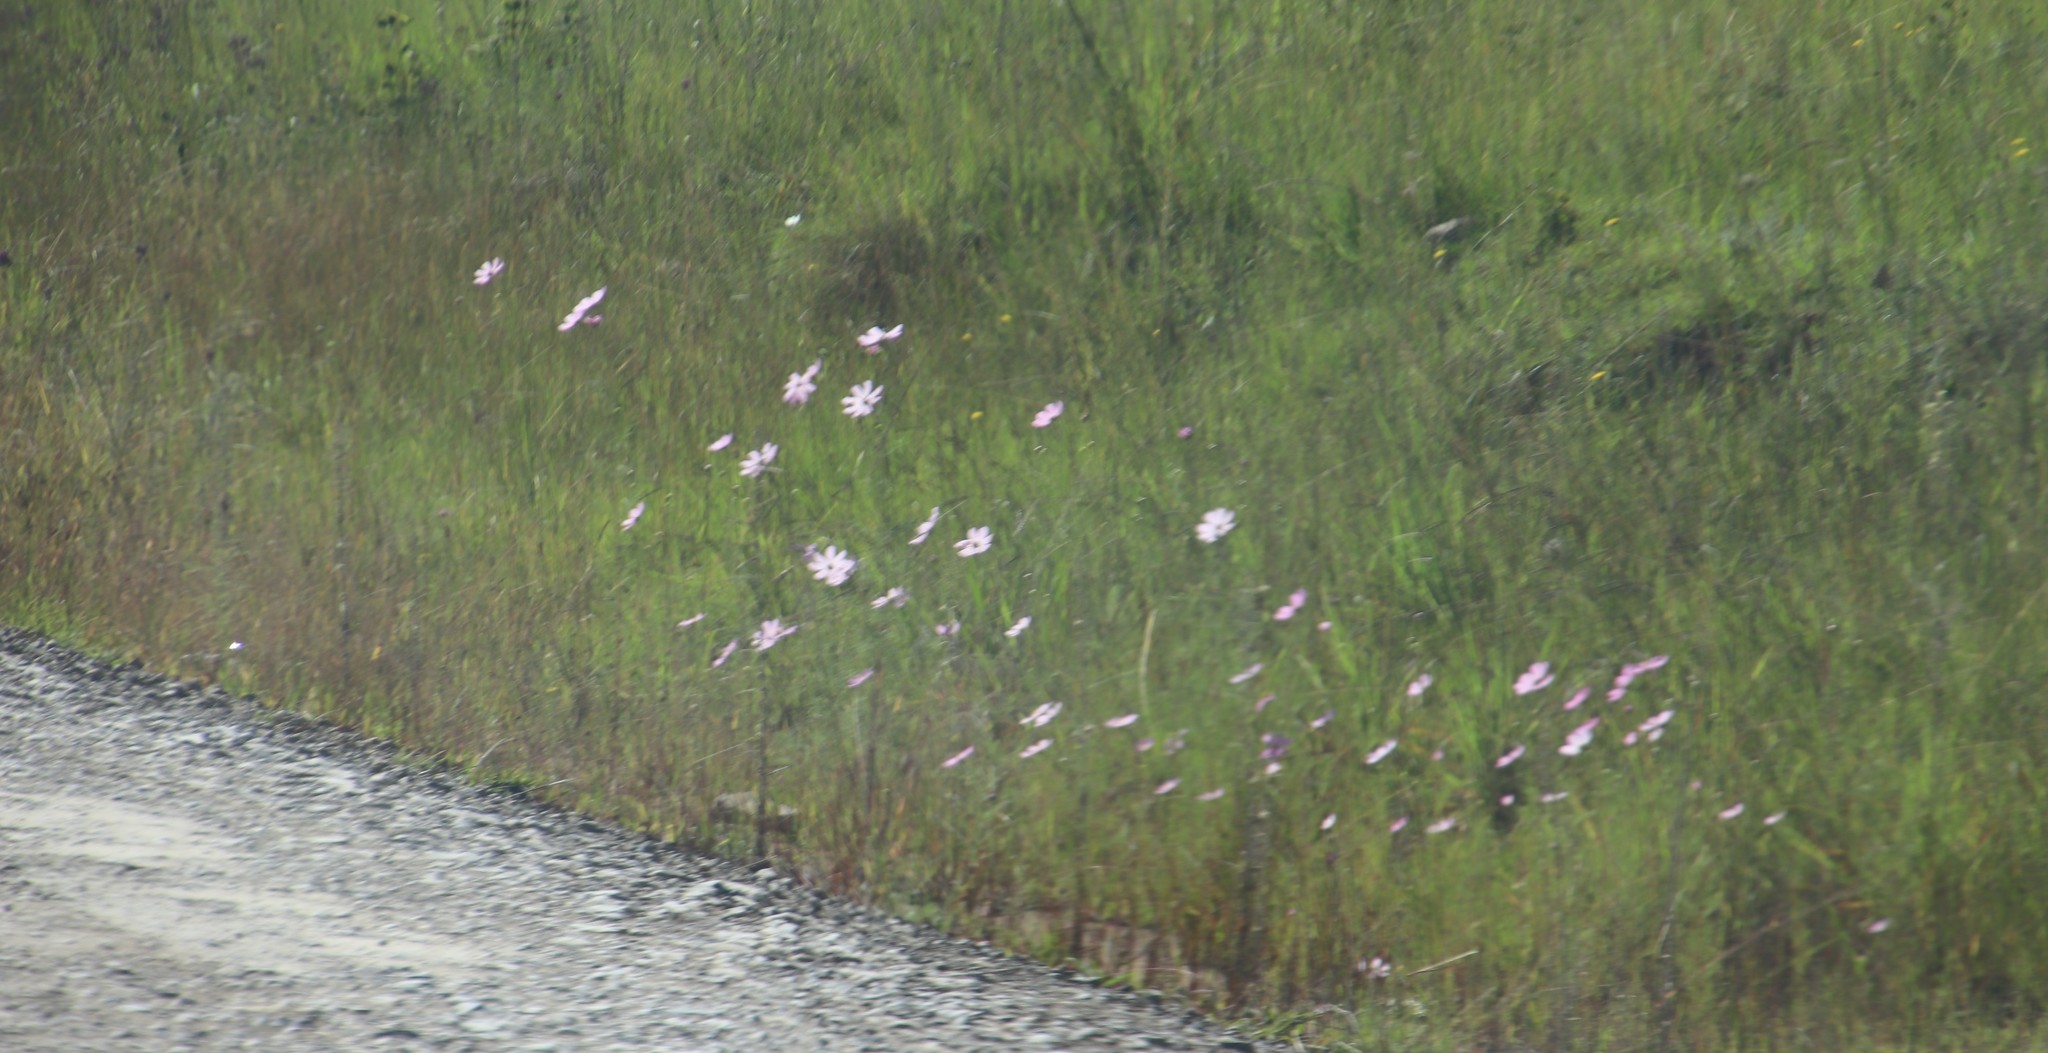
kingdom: Plantae
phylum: Tracheophyta
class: Magnoliopsida
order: Asterales
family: Asteraceae
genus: Cosmos
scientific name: Cosmos bipinnatus
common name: Garden cosmos
